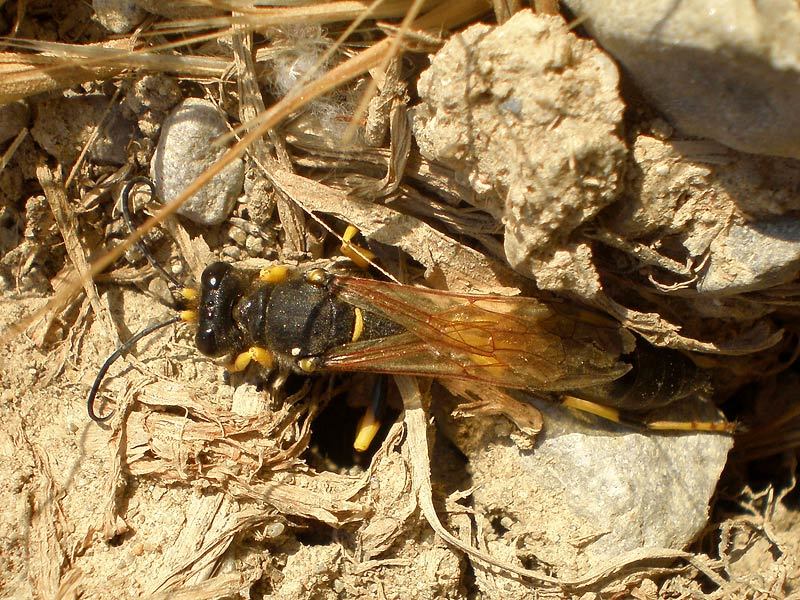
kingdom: Animalia
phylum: Arthropoda
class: Insecta
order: Hymenoptera
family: Sphecidae
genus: Sceliphron
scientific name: Sceliphron destillatorium
